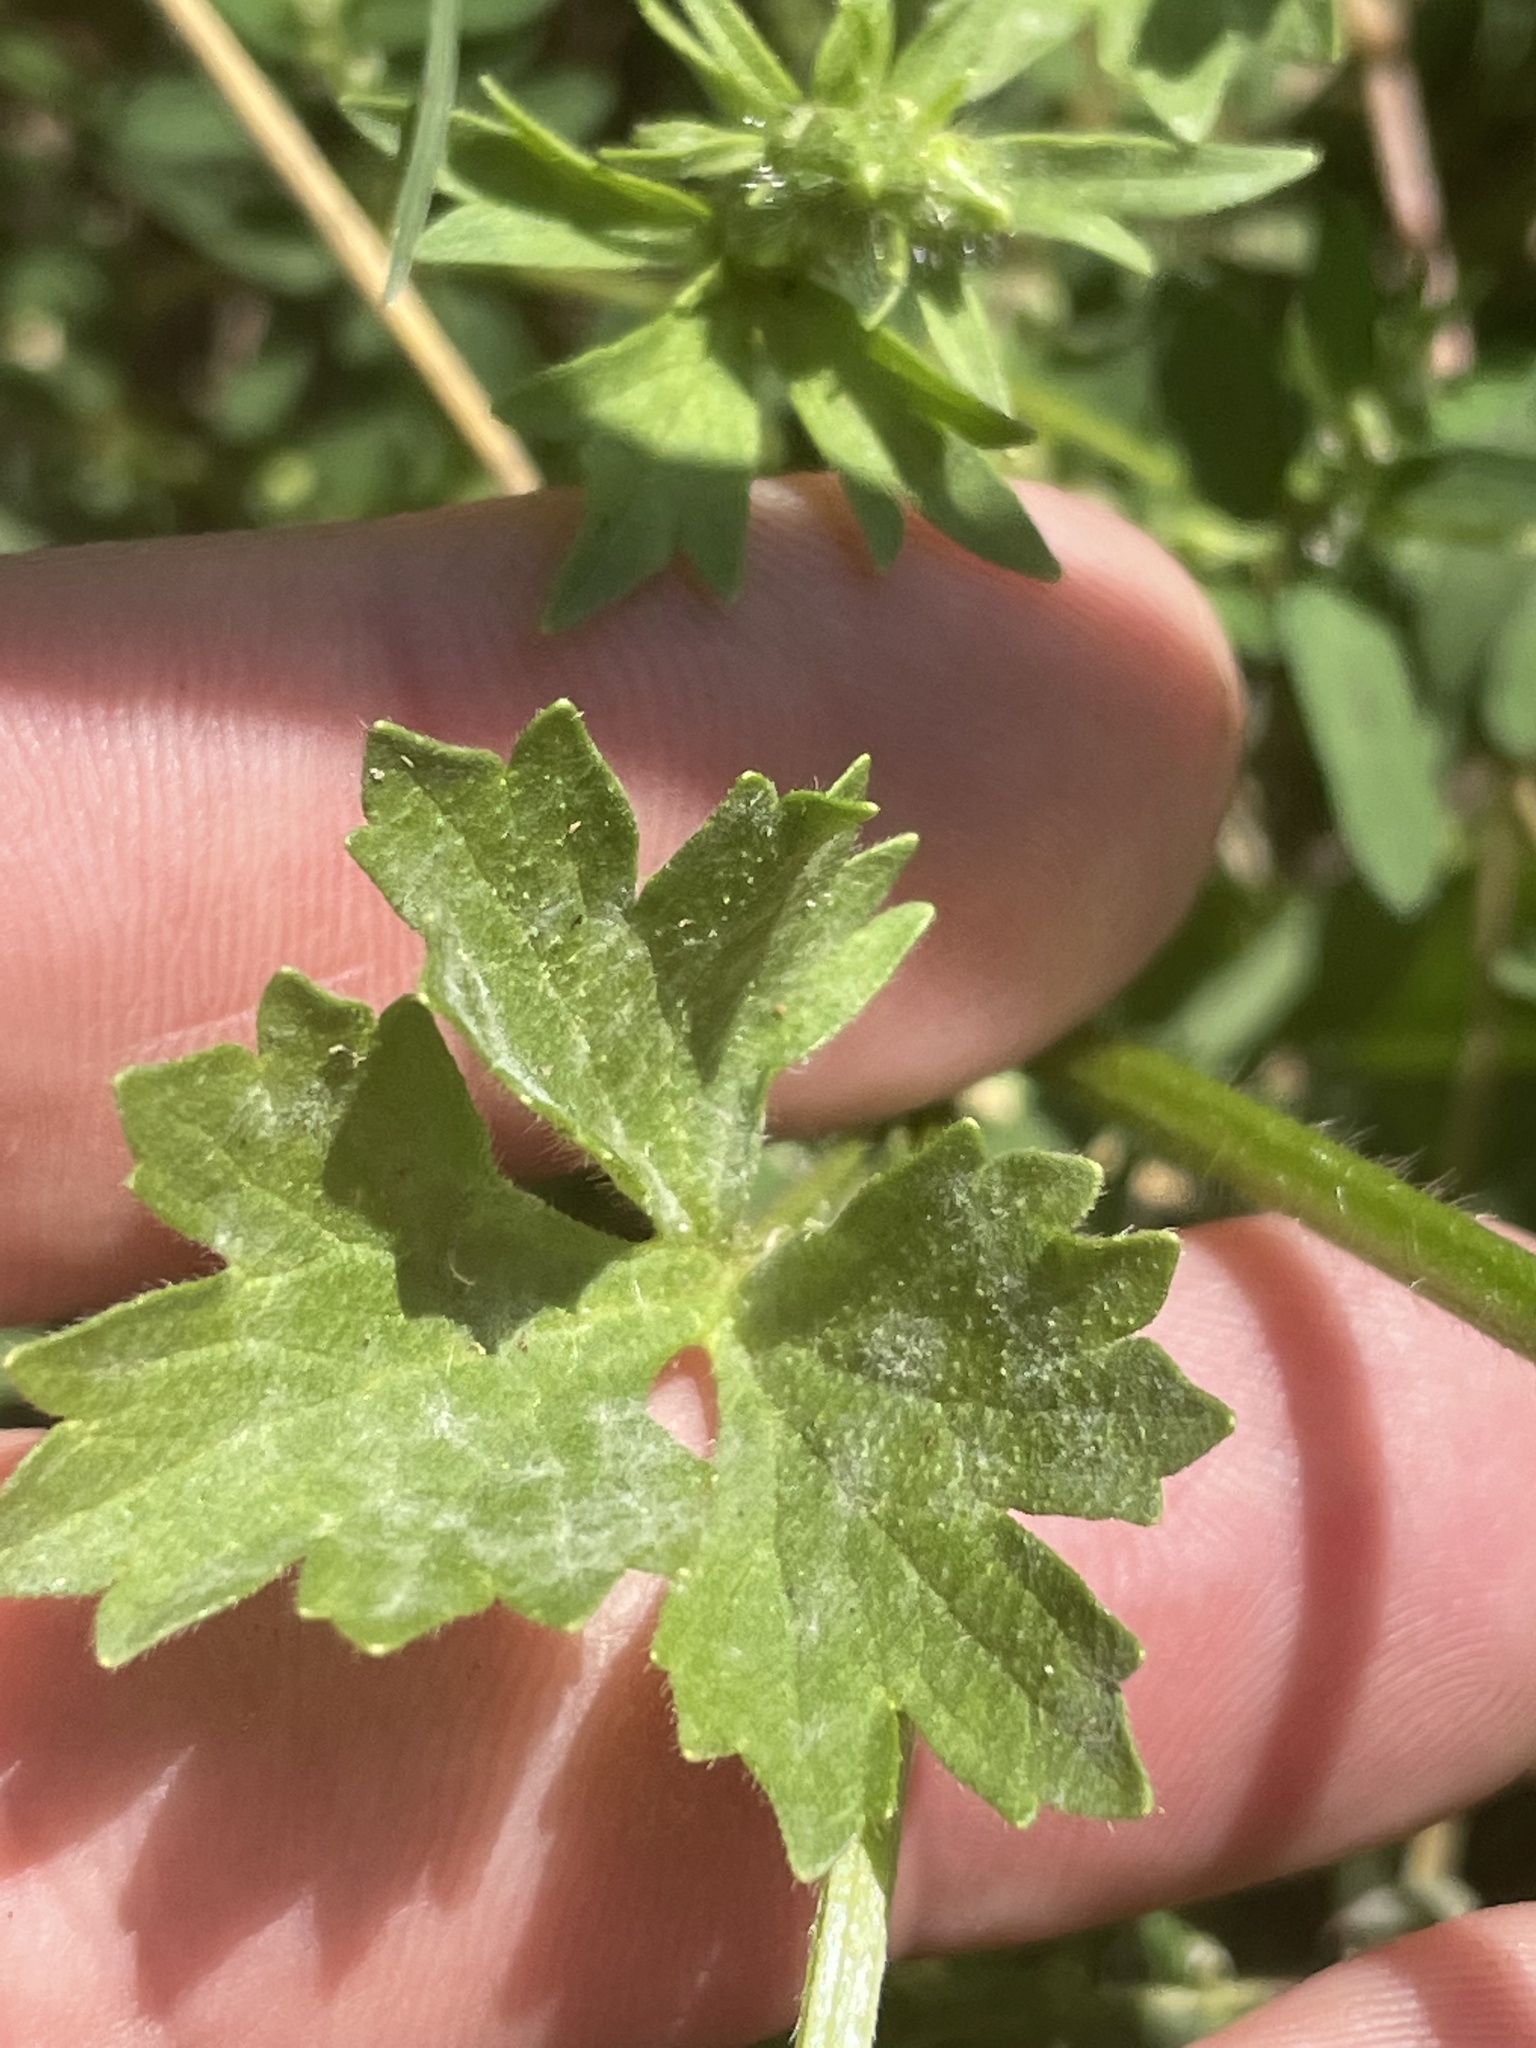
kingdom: Plantae
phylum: Tracheophyta
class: Magnoliopsida
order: Ranunculales
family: Ranunculaceae
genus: Ranunculus
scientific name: Ranunculus sardous
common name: Hairy buttercup
